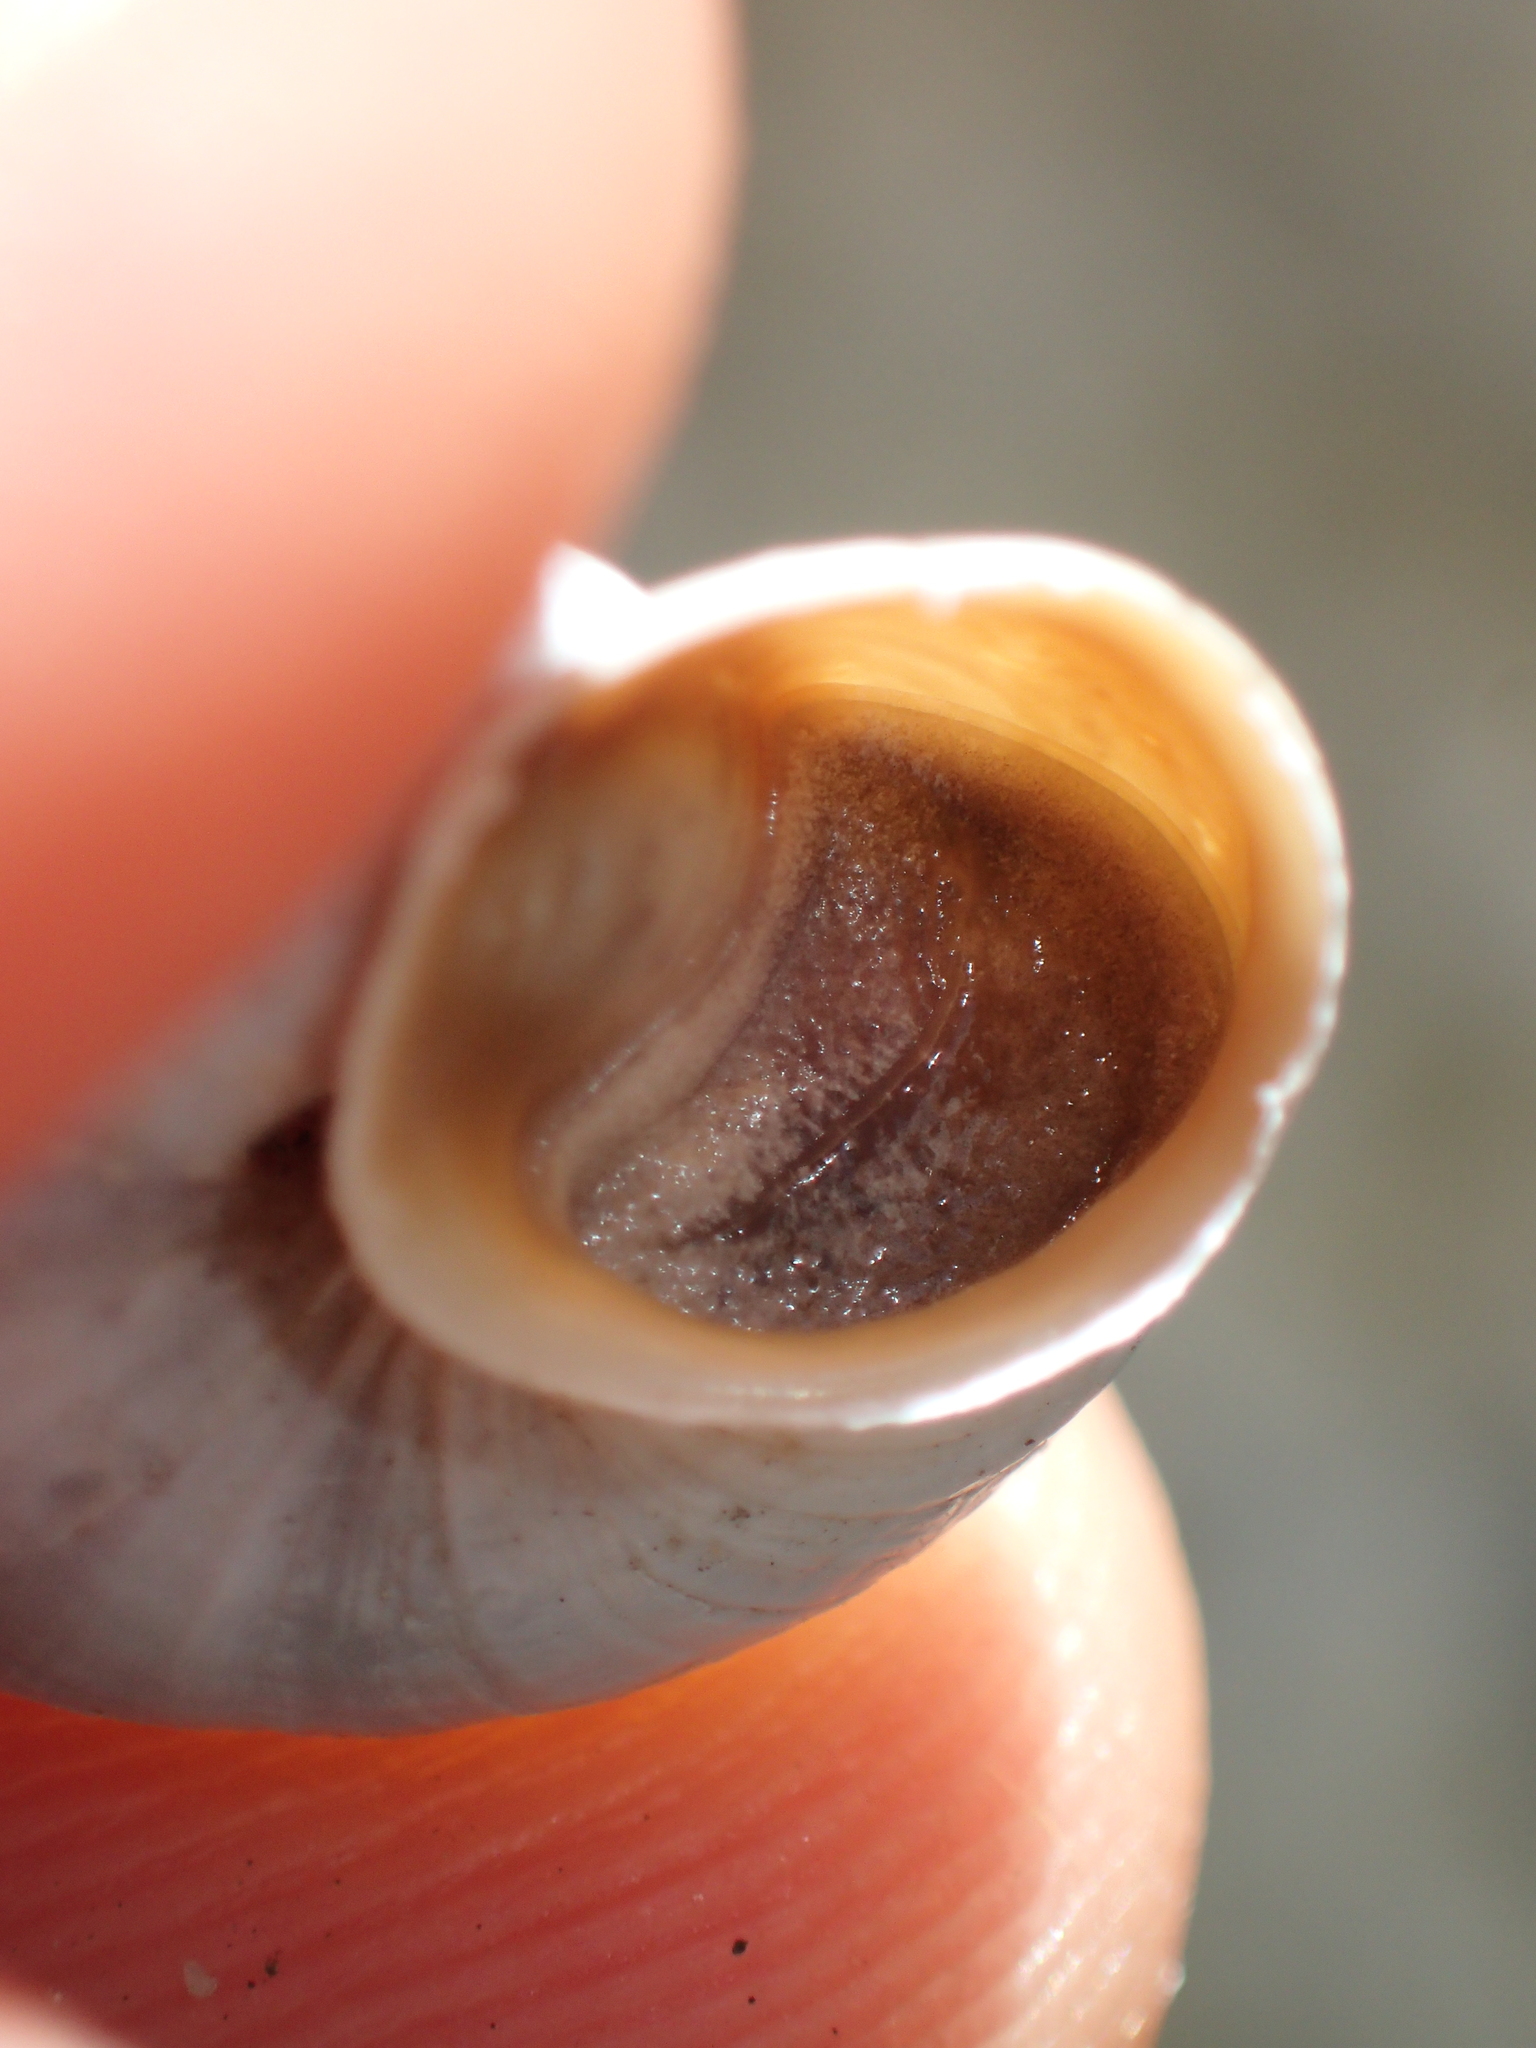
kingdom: Animalia
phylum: Mollusca
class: Gastropoda
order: Stylommatophora
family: Helicidae
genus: Vidovicia
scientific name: Vidovicia caerulans
